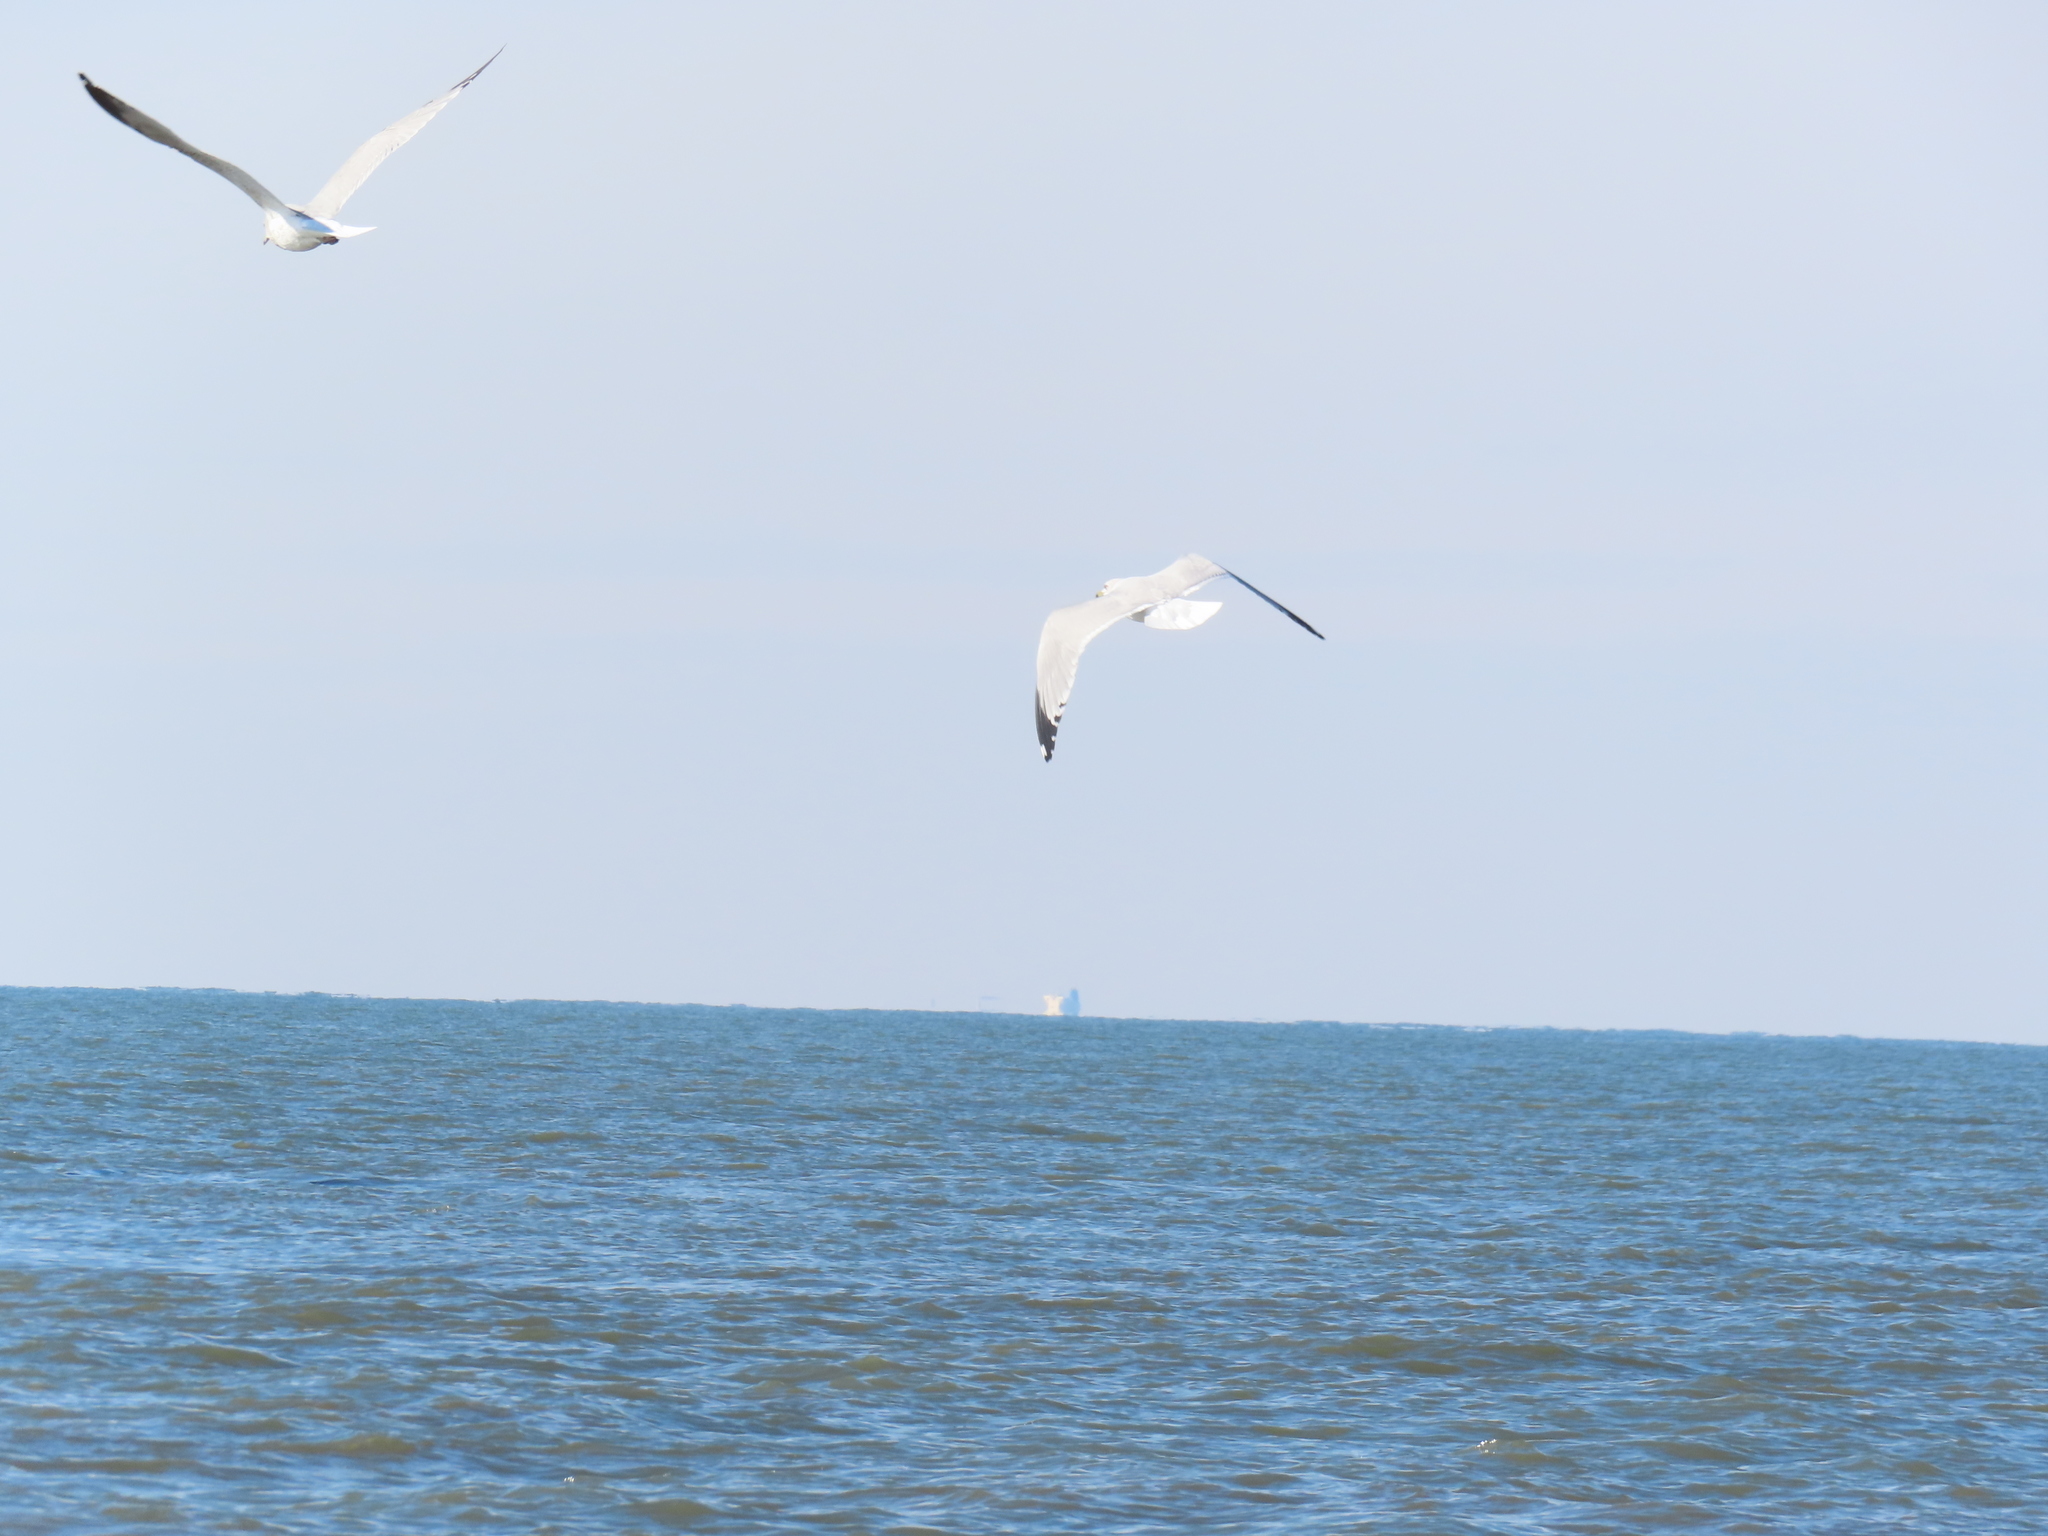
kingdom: Animalia
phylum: Chordata
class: Aves
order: Charadriiformes
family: Laridae
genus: Larus
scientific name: Larus delawarensis
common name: Ring-billed gull
